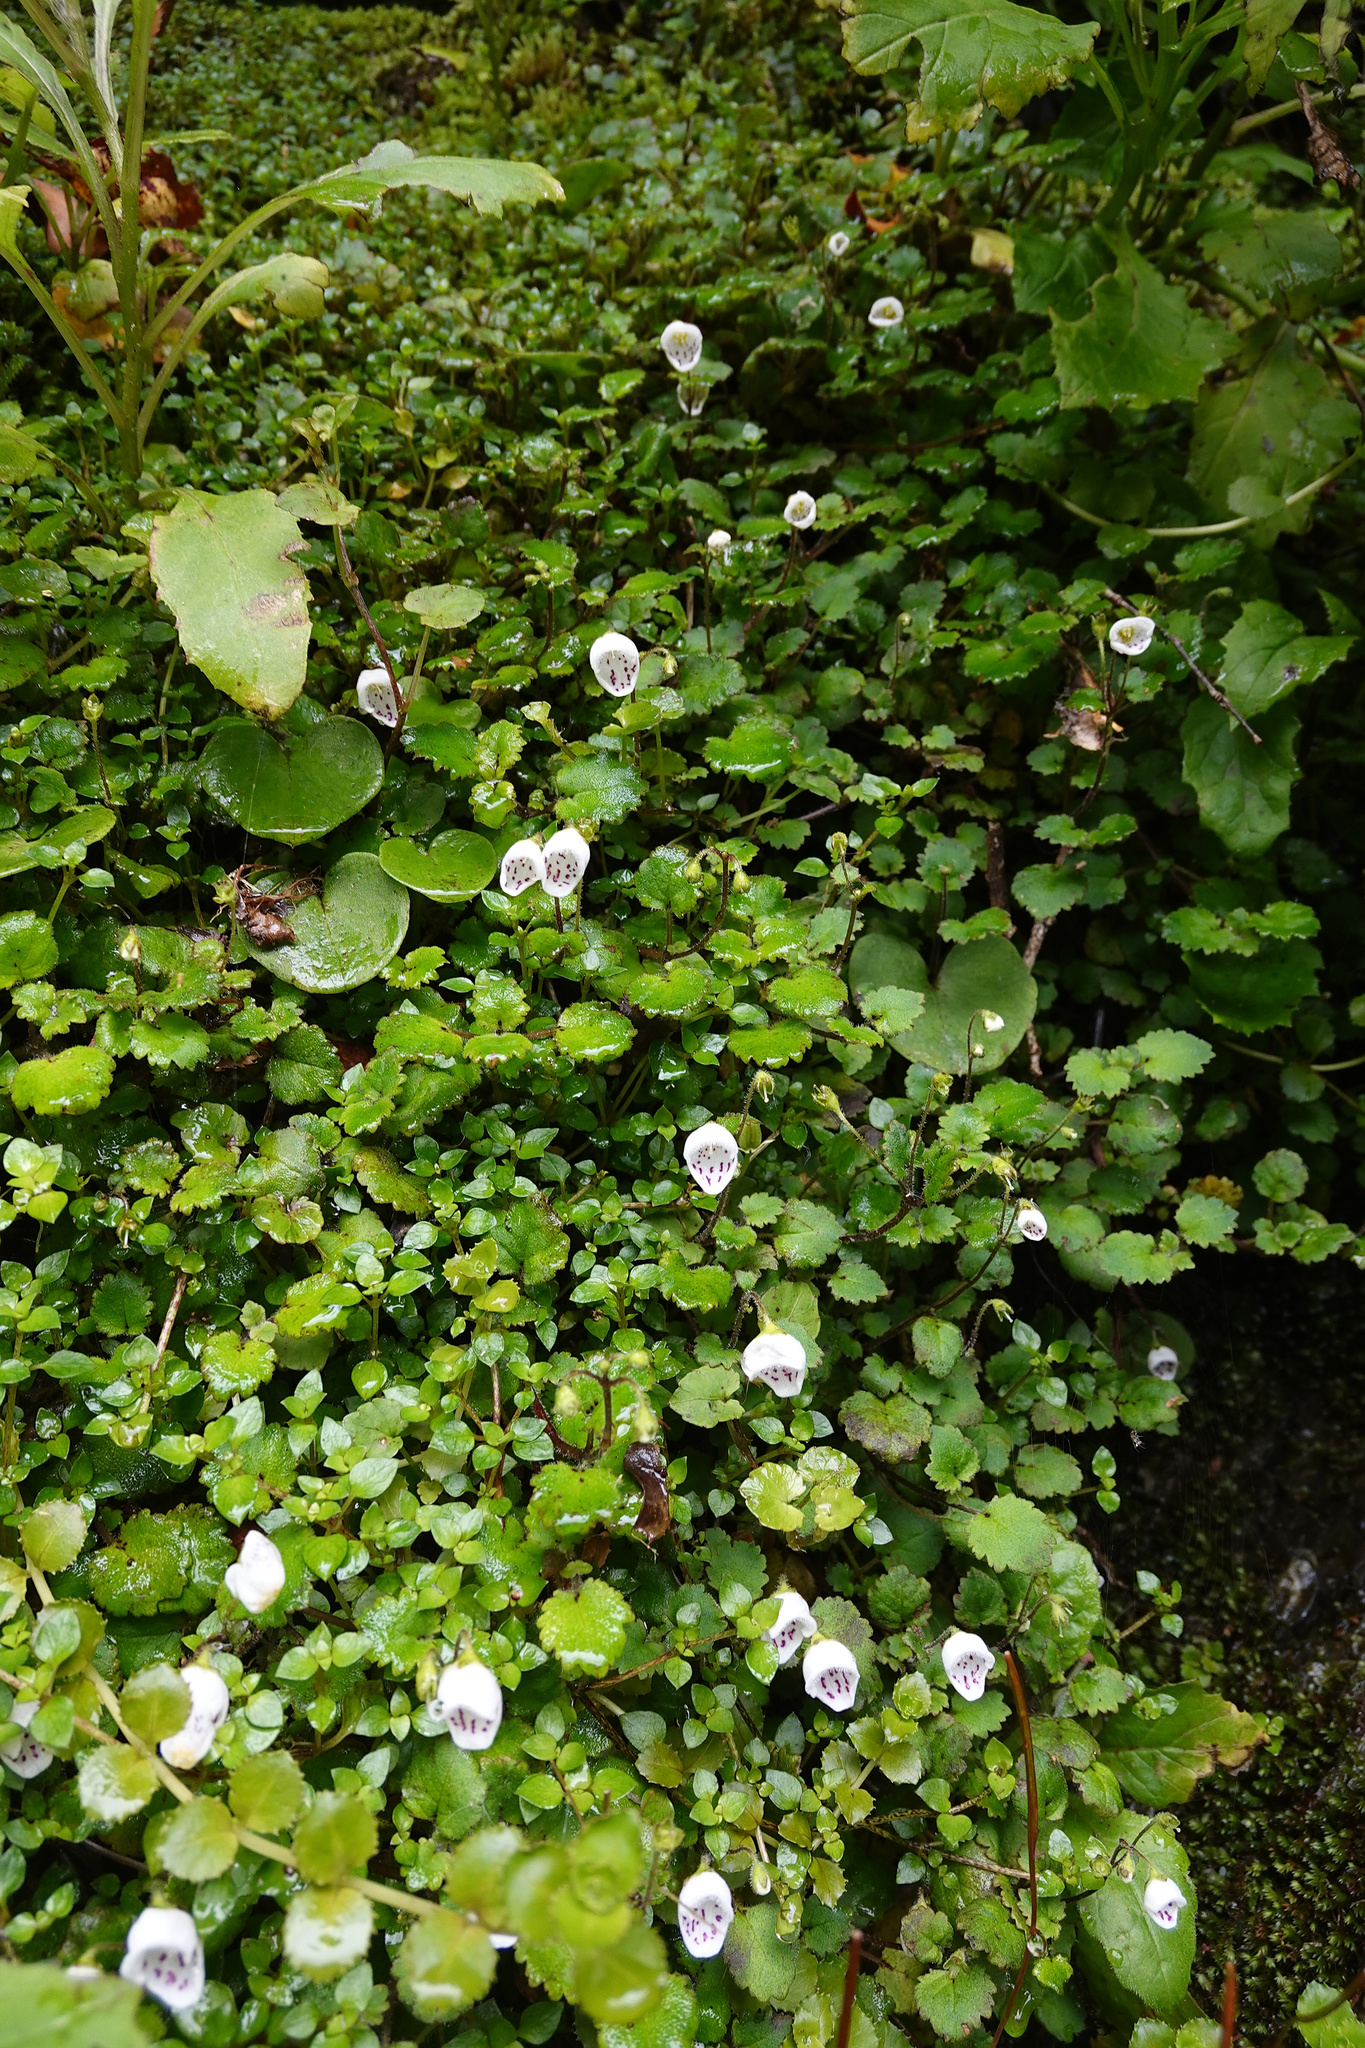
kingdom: Plantae
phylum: Tracheophyta
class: Magnoliopsida
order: Lamiales
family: Calceolariaceae
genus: Jovellana
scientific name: Jovellana repens
